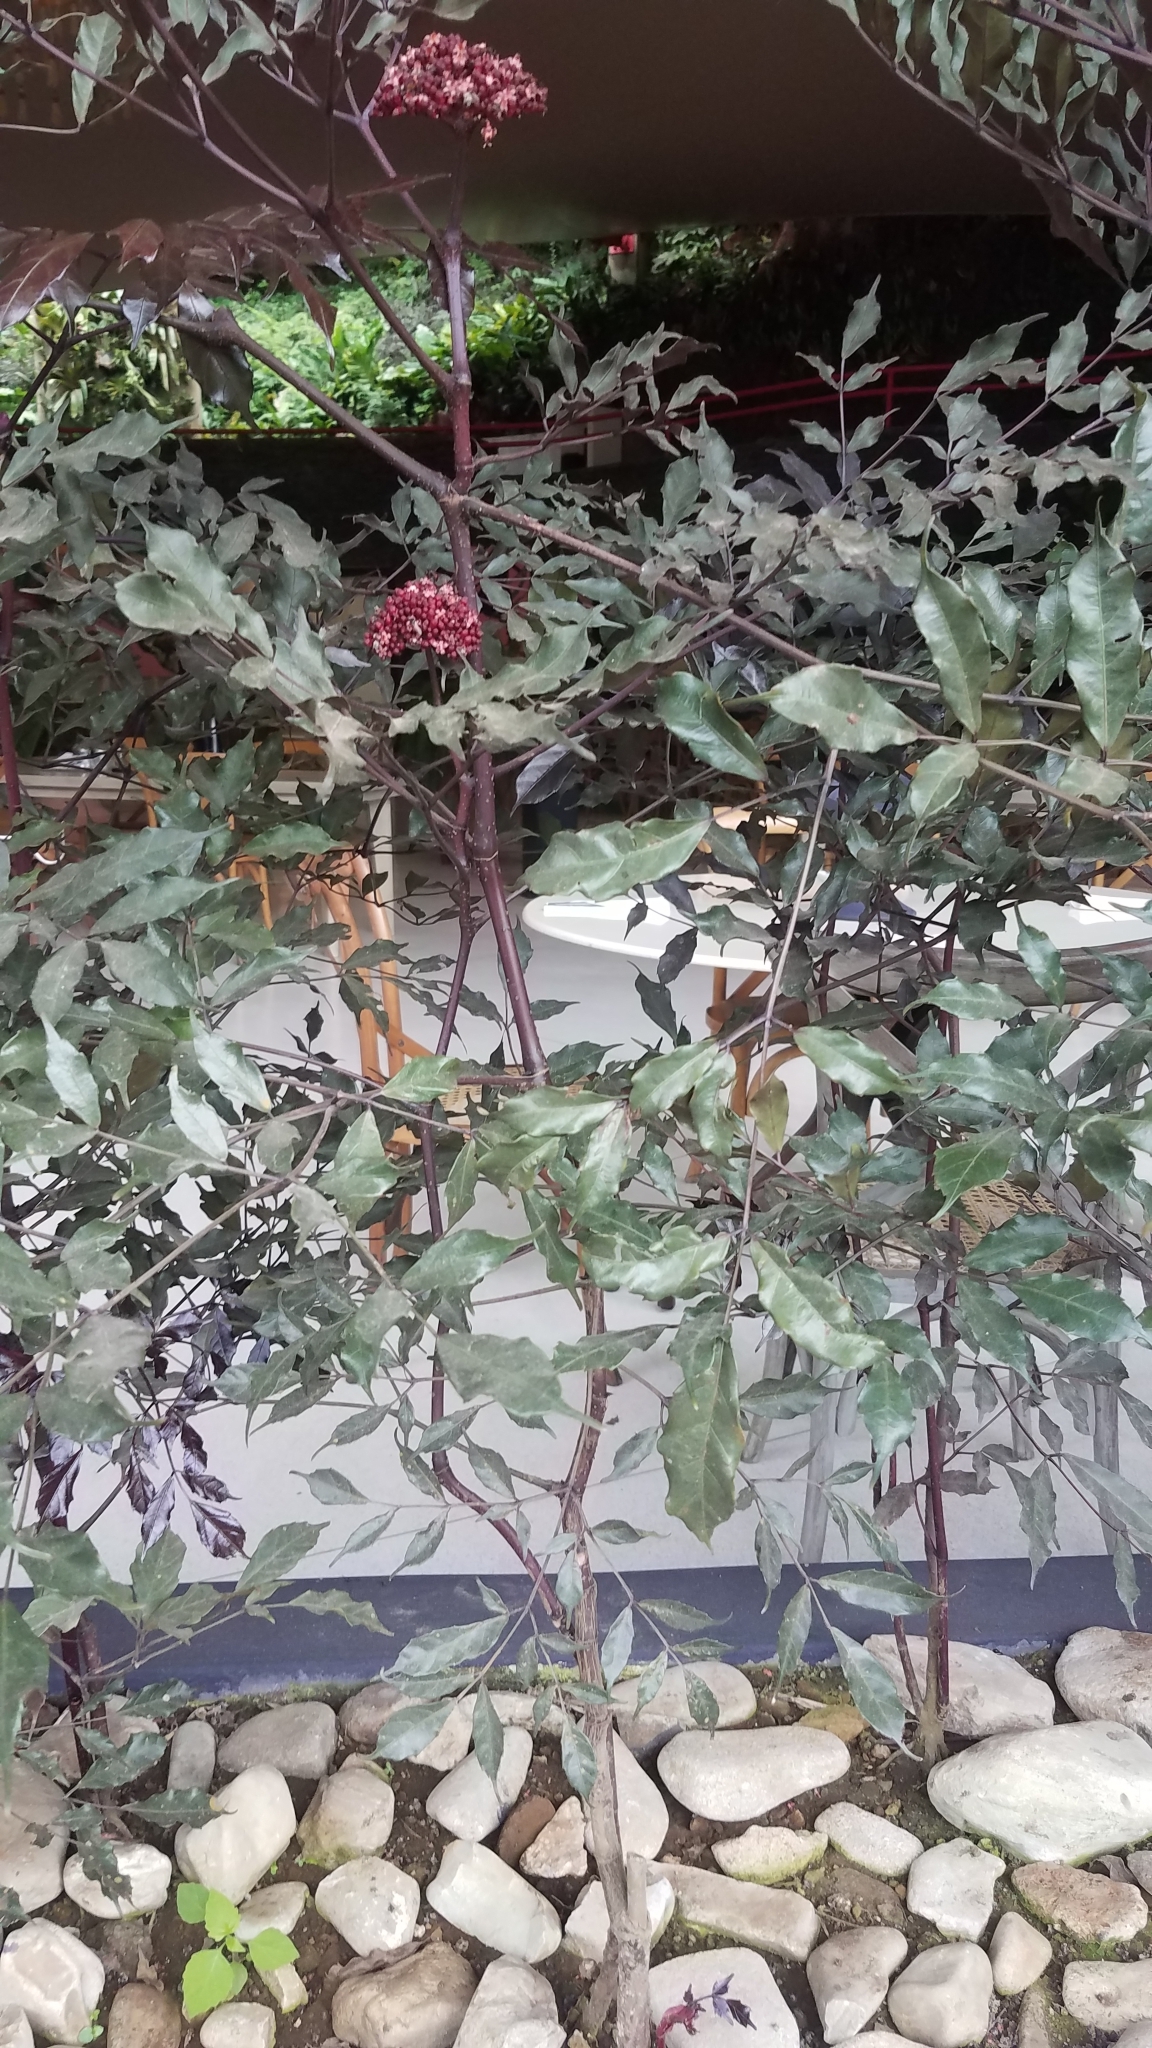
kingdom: Plantae
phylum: Tracheophyta
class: Magnoliopsida
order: Vitales
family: Vitaceae
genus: Leea
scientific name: Leea guineensis
